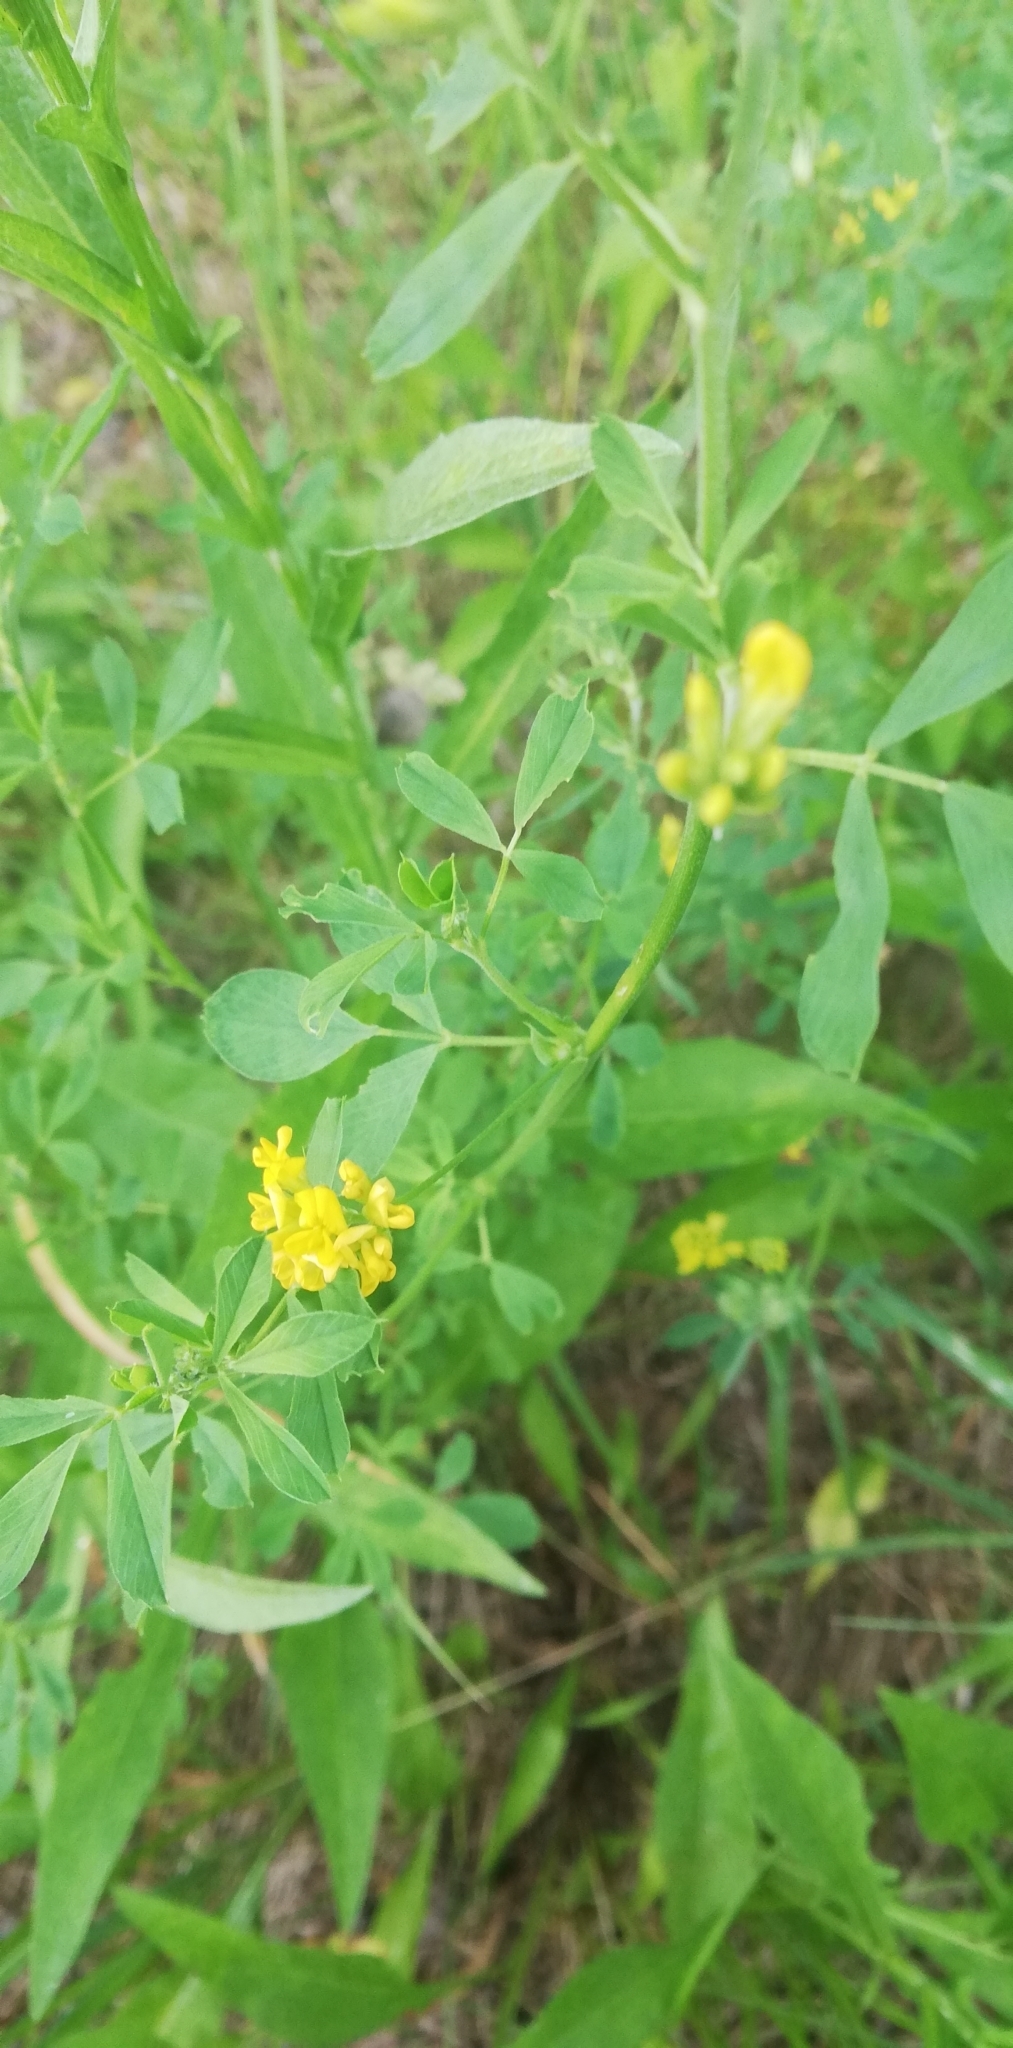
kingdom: Plantae
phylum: Tracheophyta
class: Magnoliopsida
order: Fabales
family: Fabaceae
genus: Medicago
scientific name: Medicago falcata
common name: Sickle medick
